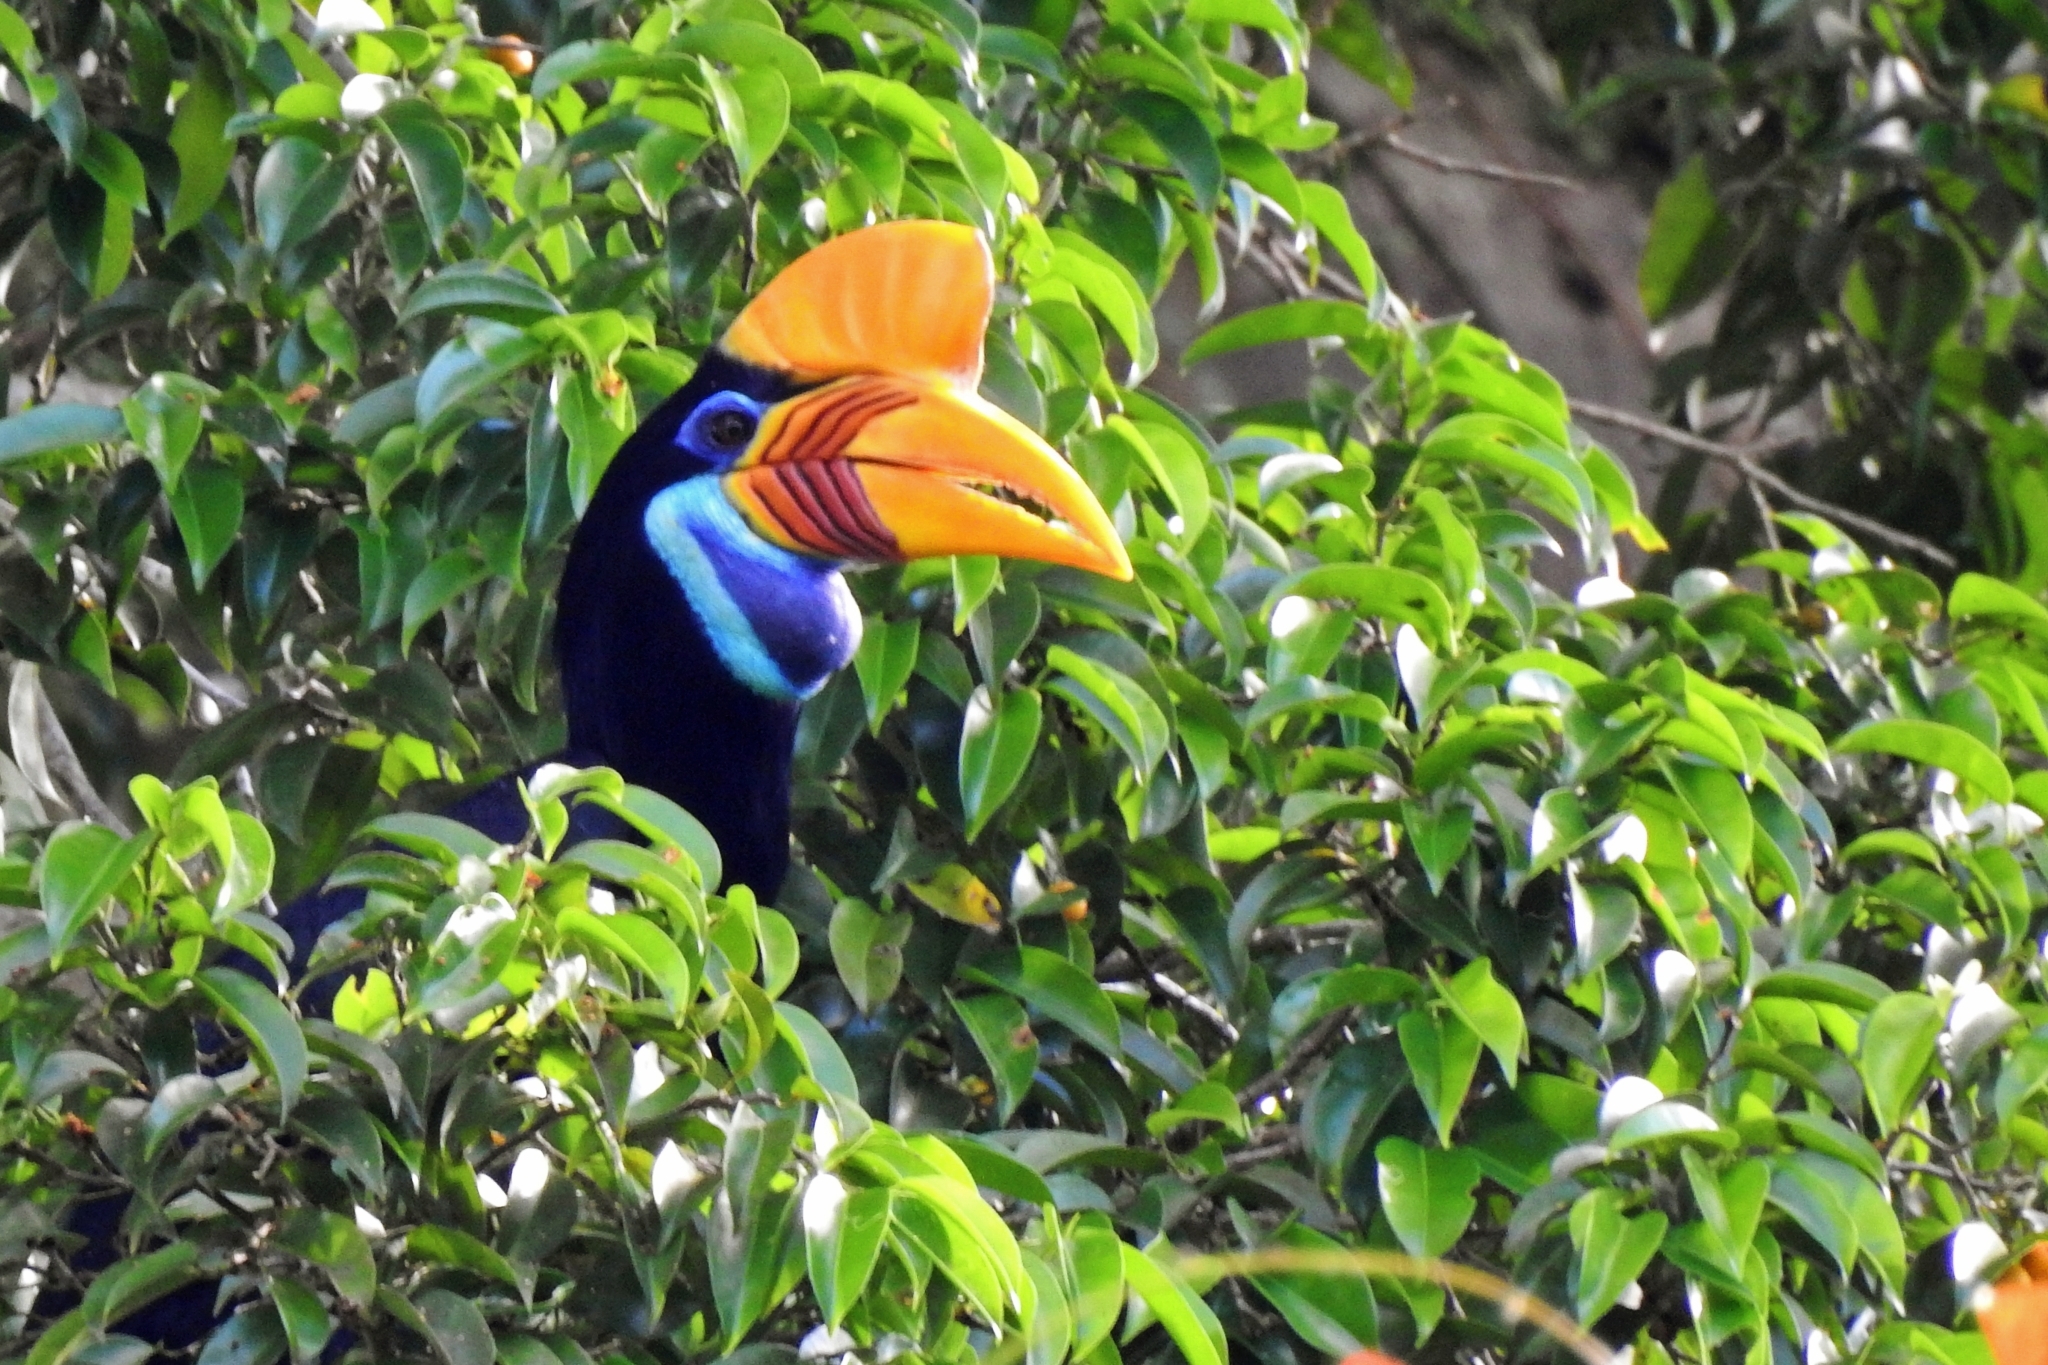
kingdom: Animalia
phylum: Chordata
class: Aves
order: Bucerotiformes
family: Bucerotidae
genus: Rhyticeros
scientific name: Rhyticeros cassidix
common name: Knobbed hornbill
